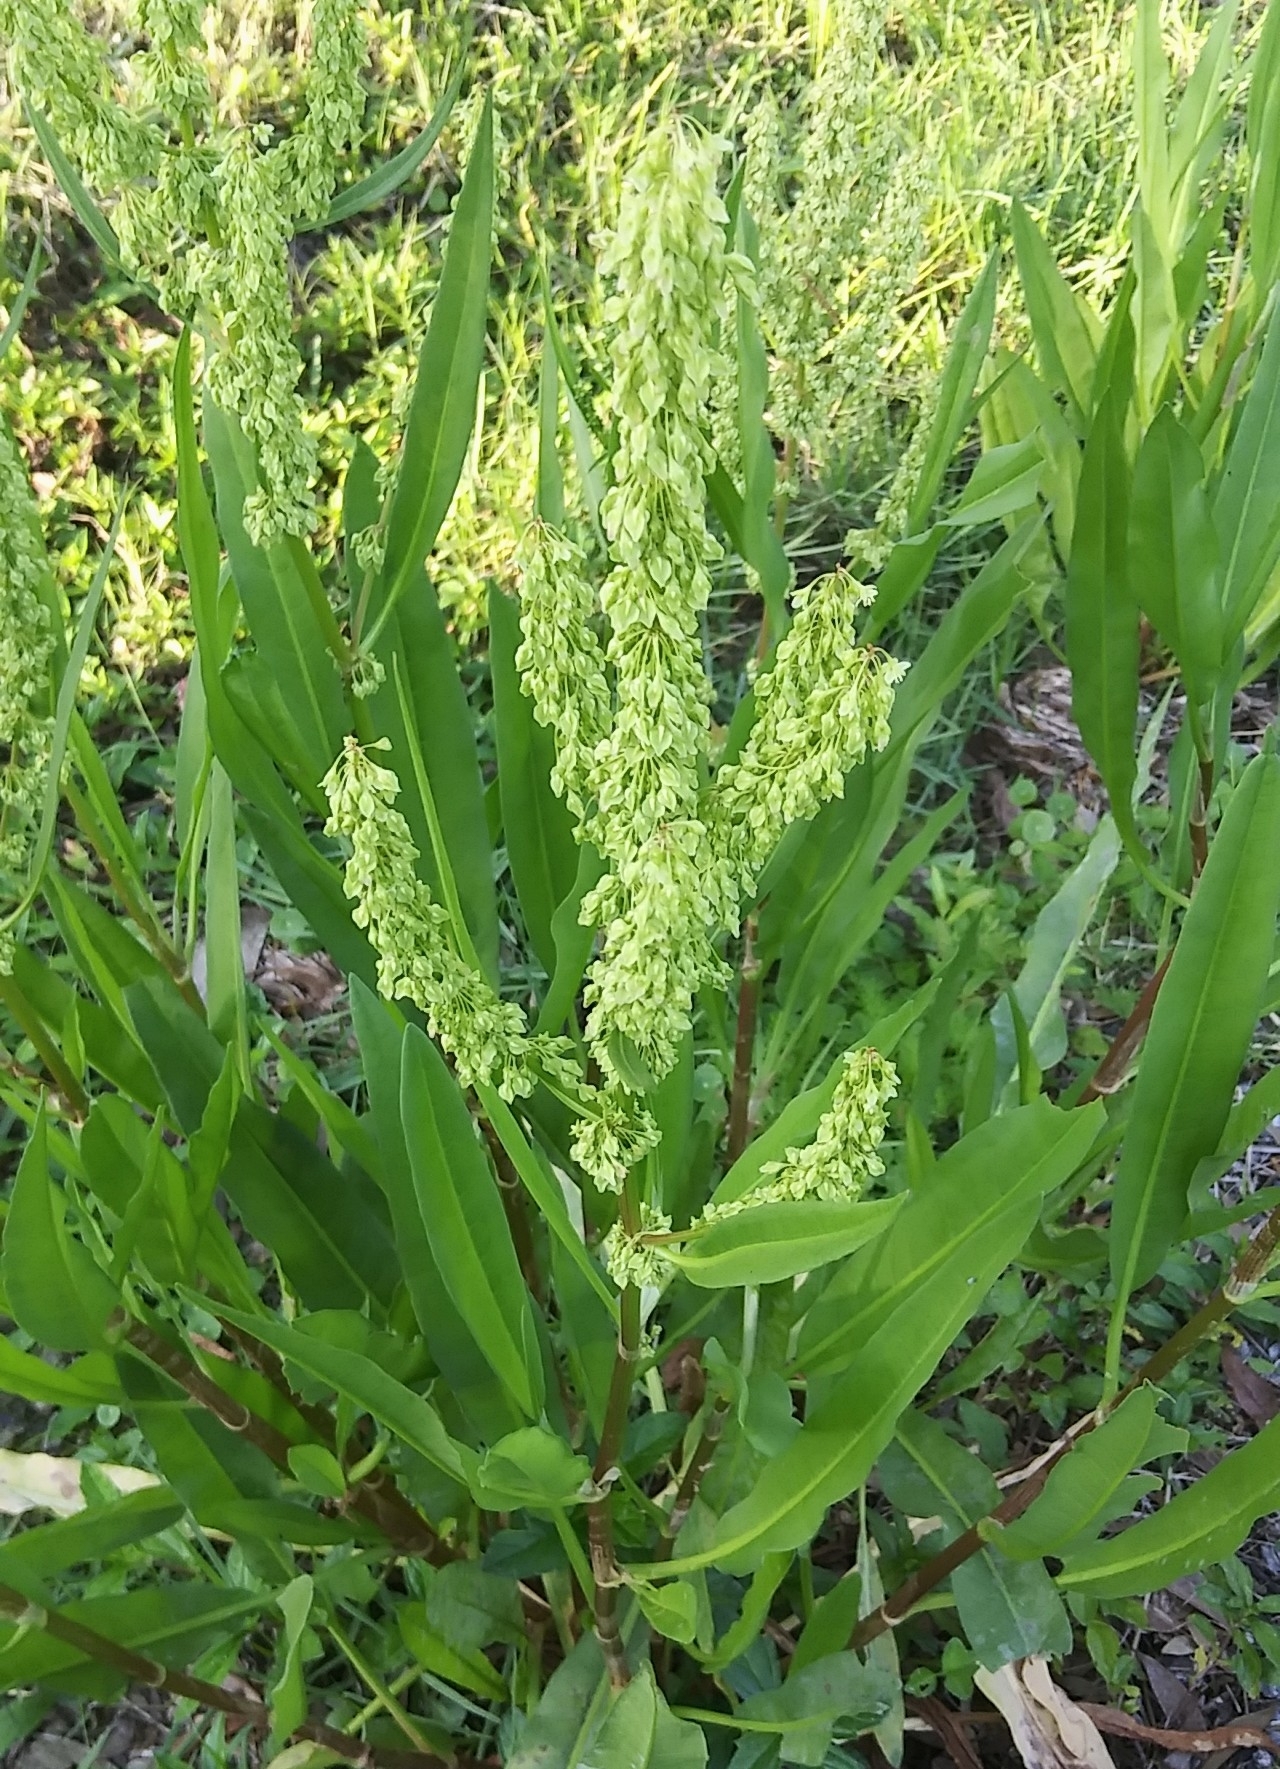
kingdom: Plantae
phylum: Tracheophyta
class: Magnoliopsida
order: Caryophyllales
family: Polygonaceae
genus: Rumex
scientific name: Rumex verticillatus
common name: Swamp dock
